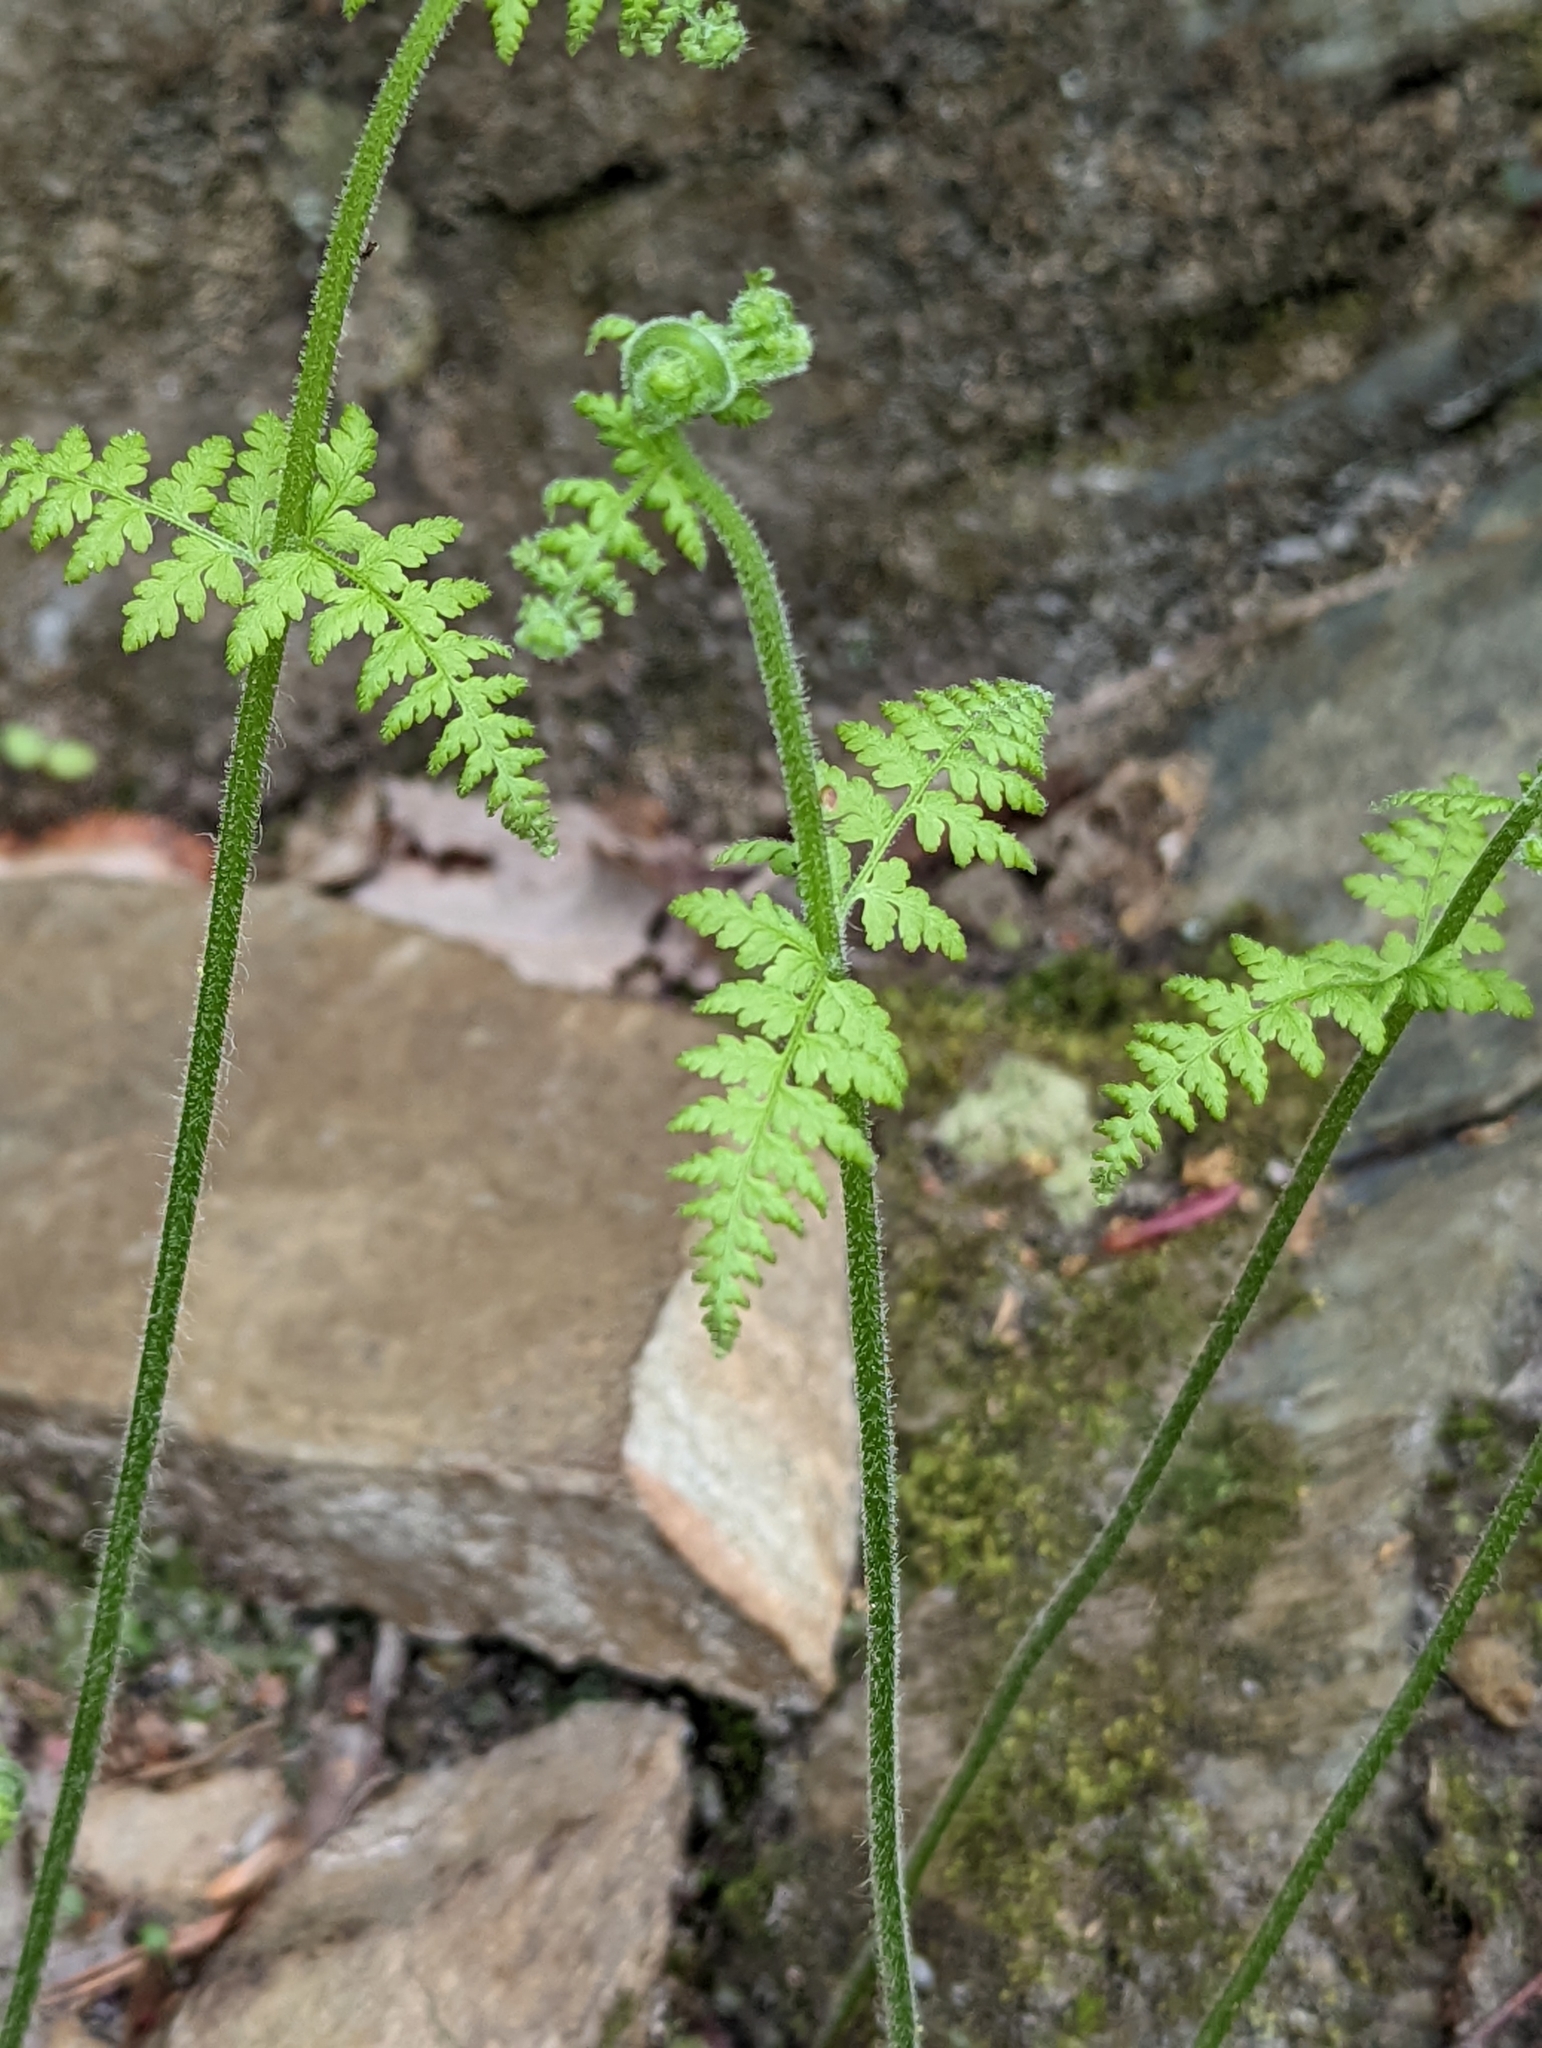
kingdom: Plantae
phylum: Tracheophyta
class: Polypodiopsida
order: Polypodiales
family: Dennstaedtiaceae
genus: Sitobolium
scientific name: Sitobolium punctilobum
